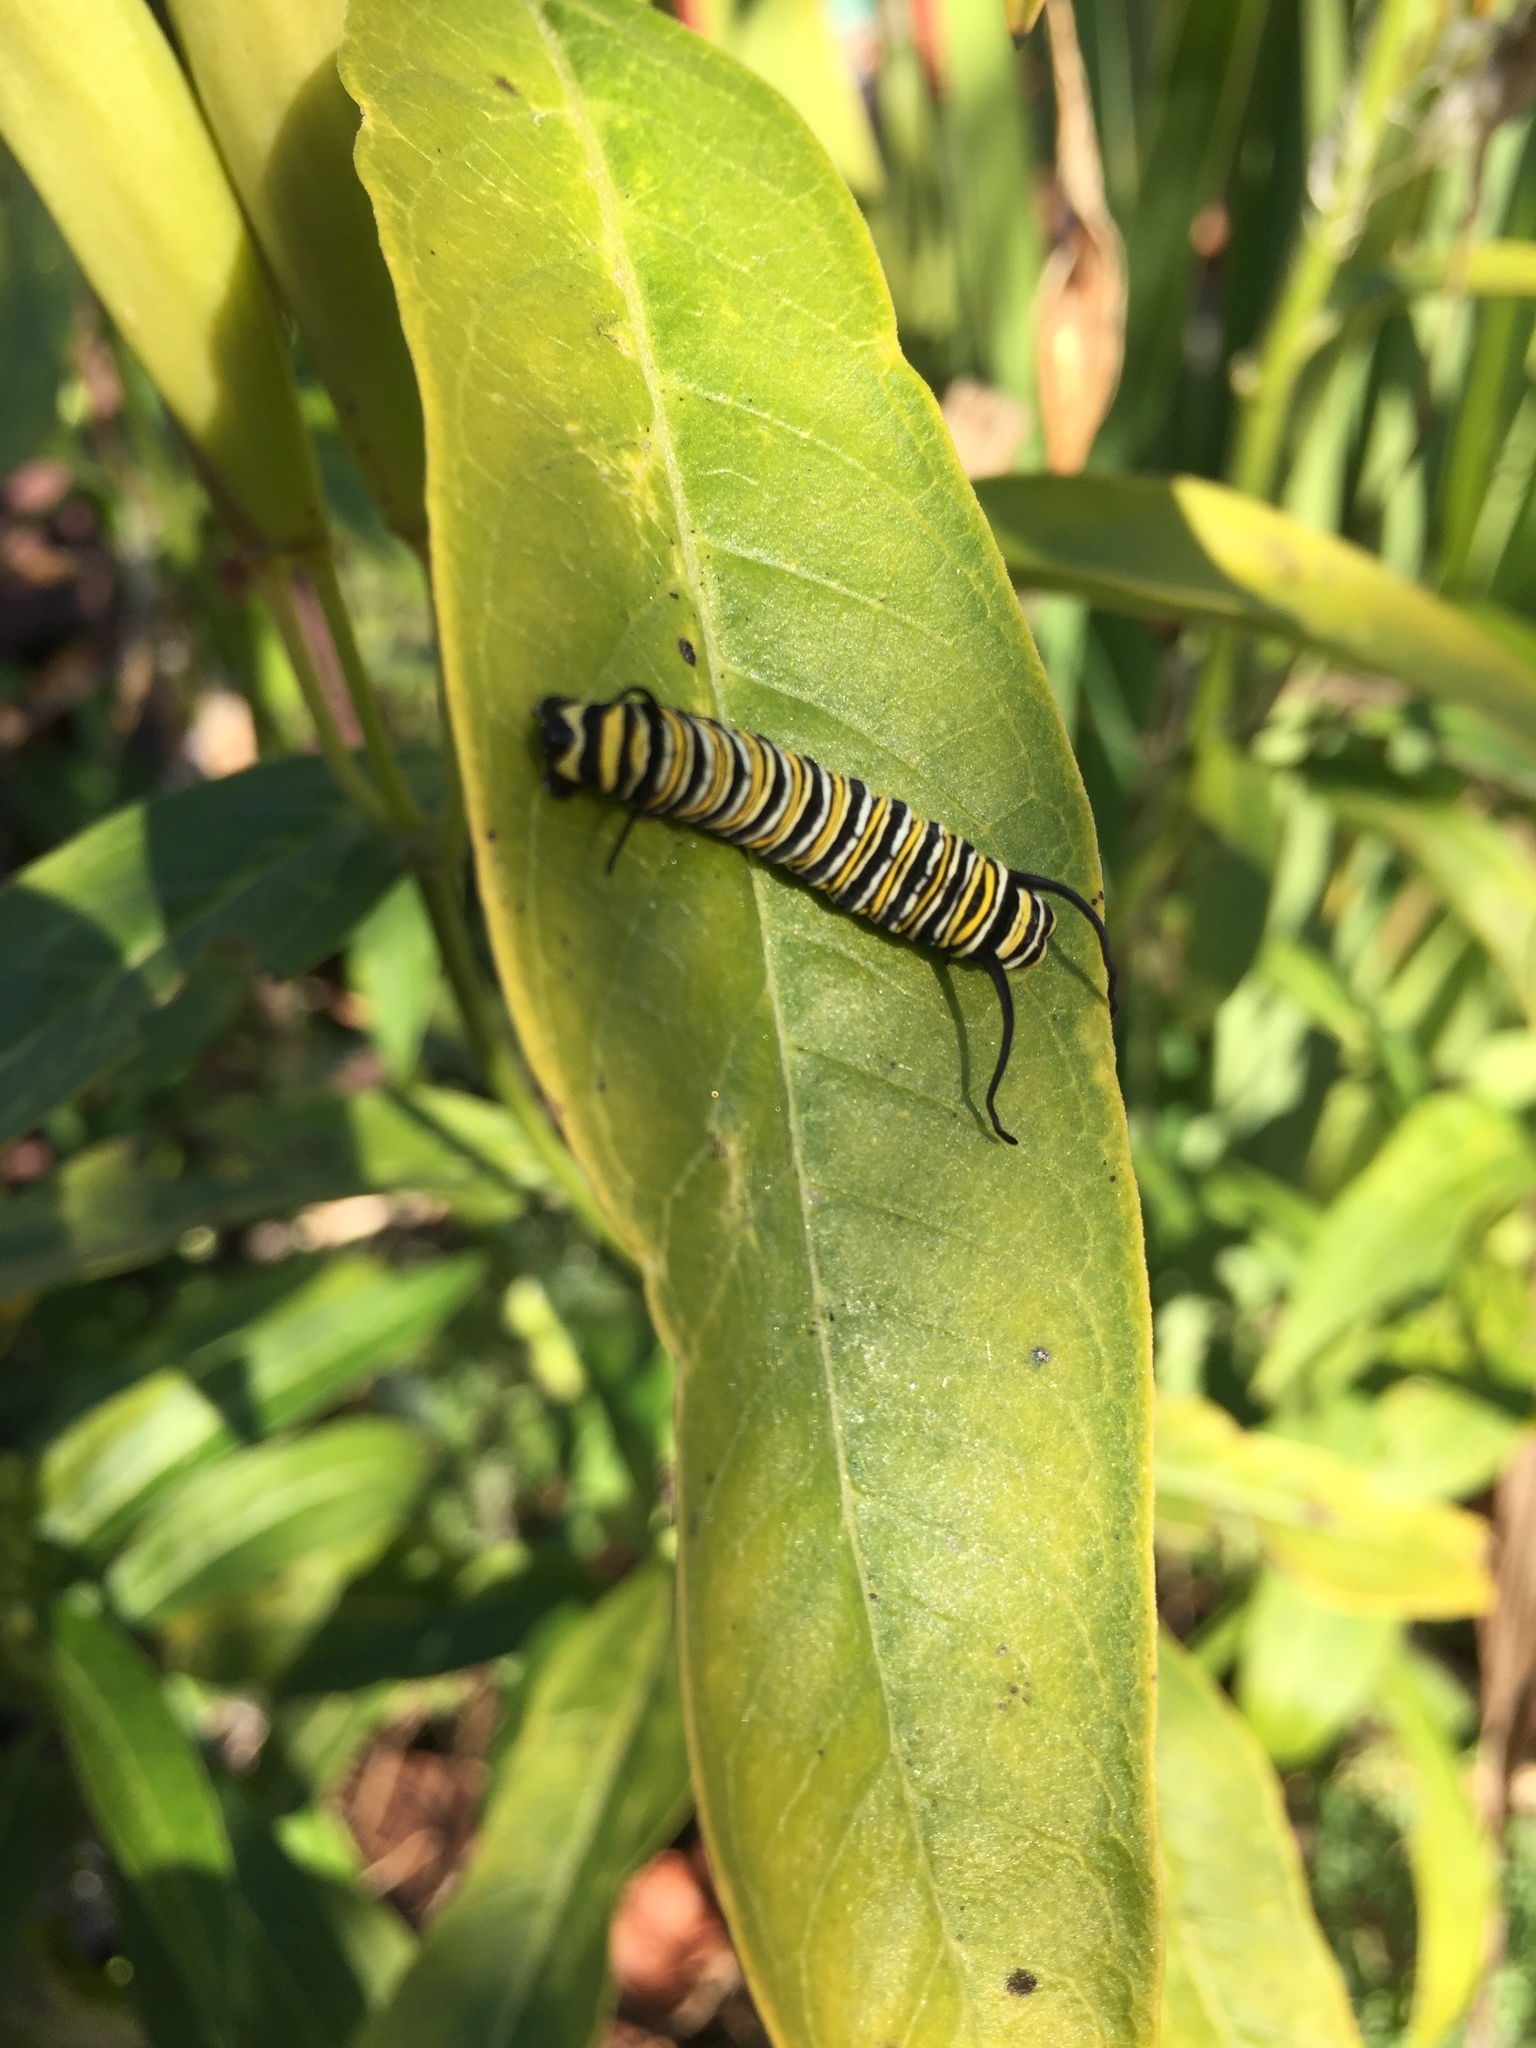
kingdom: Animalia
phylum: Arthropoda
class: Insecta
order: Lepidoptera
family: Nymphalidae
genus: Danaus
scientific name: Danaus plexippus
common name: Monarch
